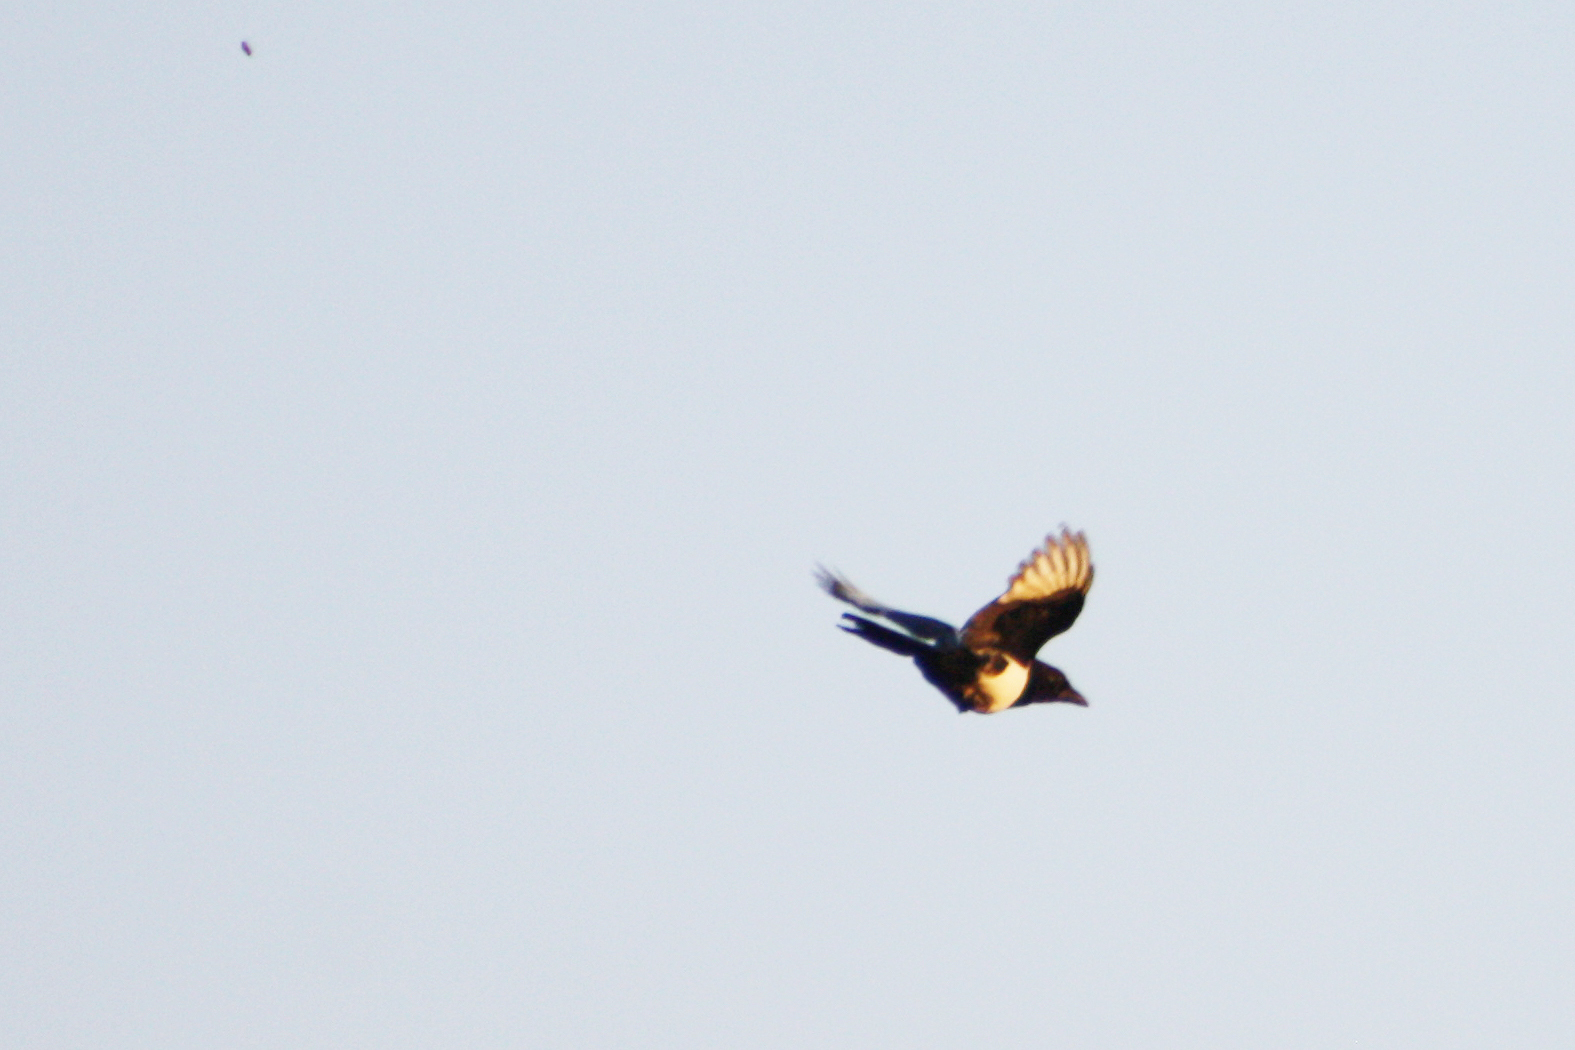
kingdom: Animalia
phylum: Chordata
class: Aves
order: Passeriformes
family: Corvidae
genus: Pica
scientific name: Pica pica
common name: Eurasian magpie
